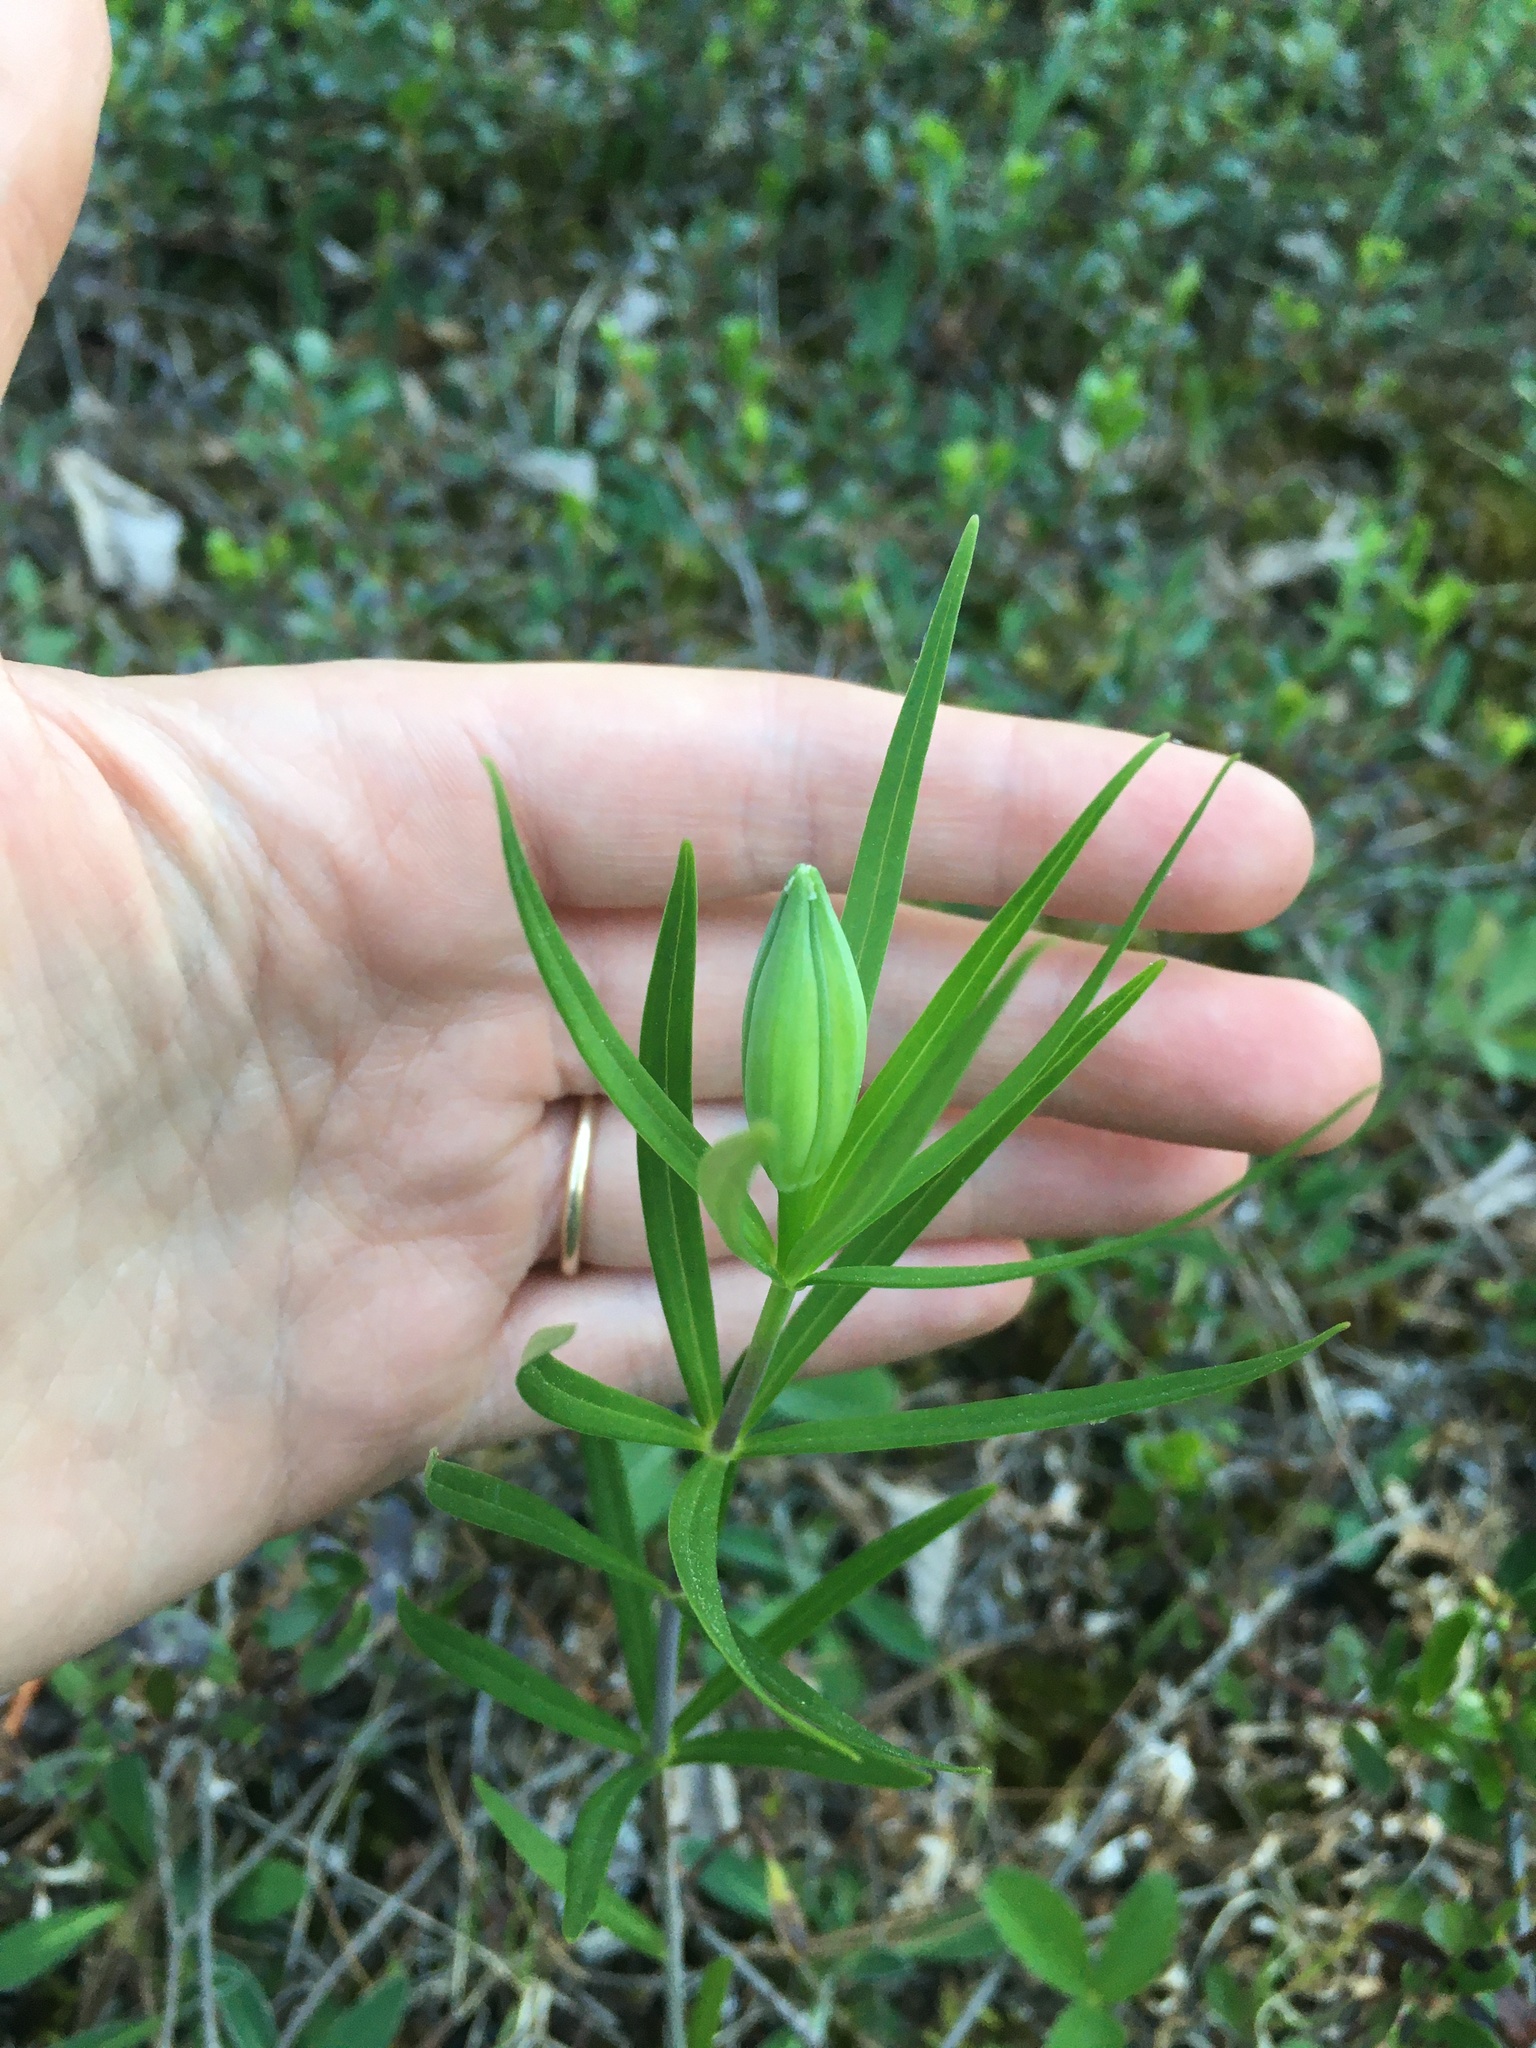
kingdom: Plantae
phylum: Tracheophyta
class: Liliopsida
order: Liliales
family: Liliaceae
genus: Lilium
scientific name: Lilium philadelphicum
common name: Red lily
